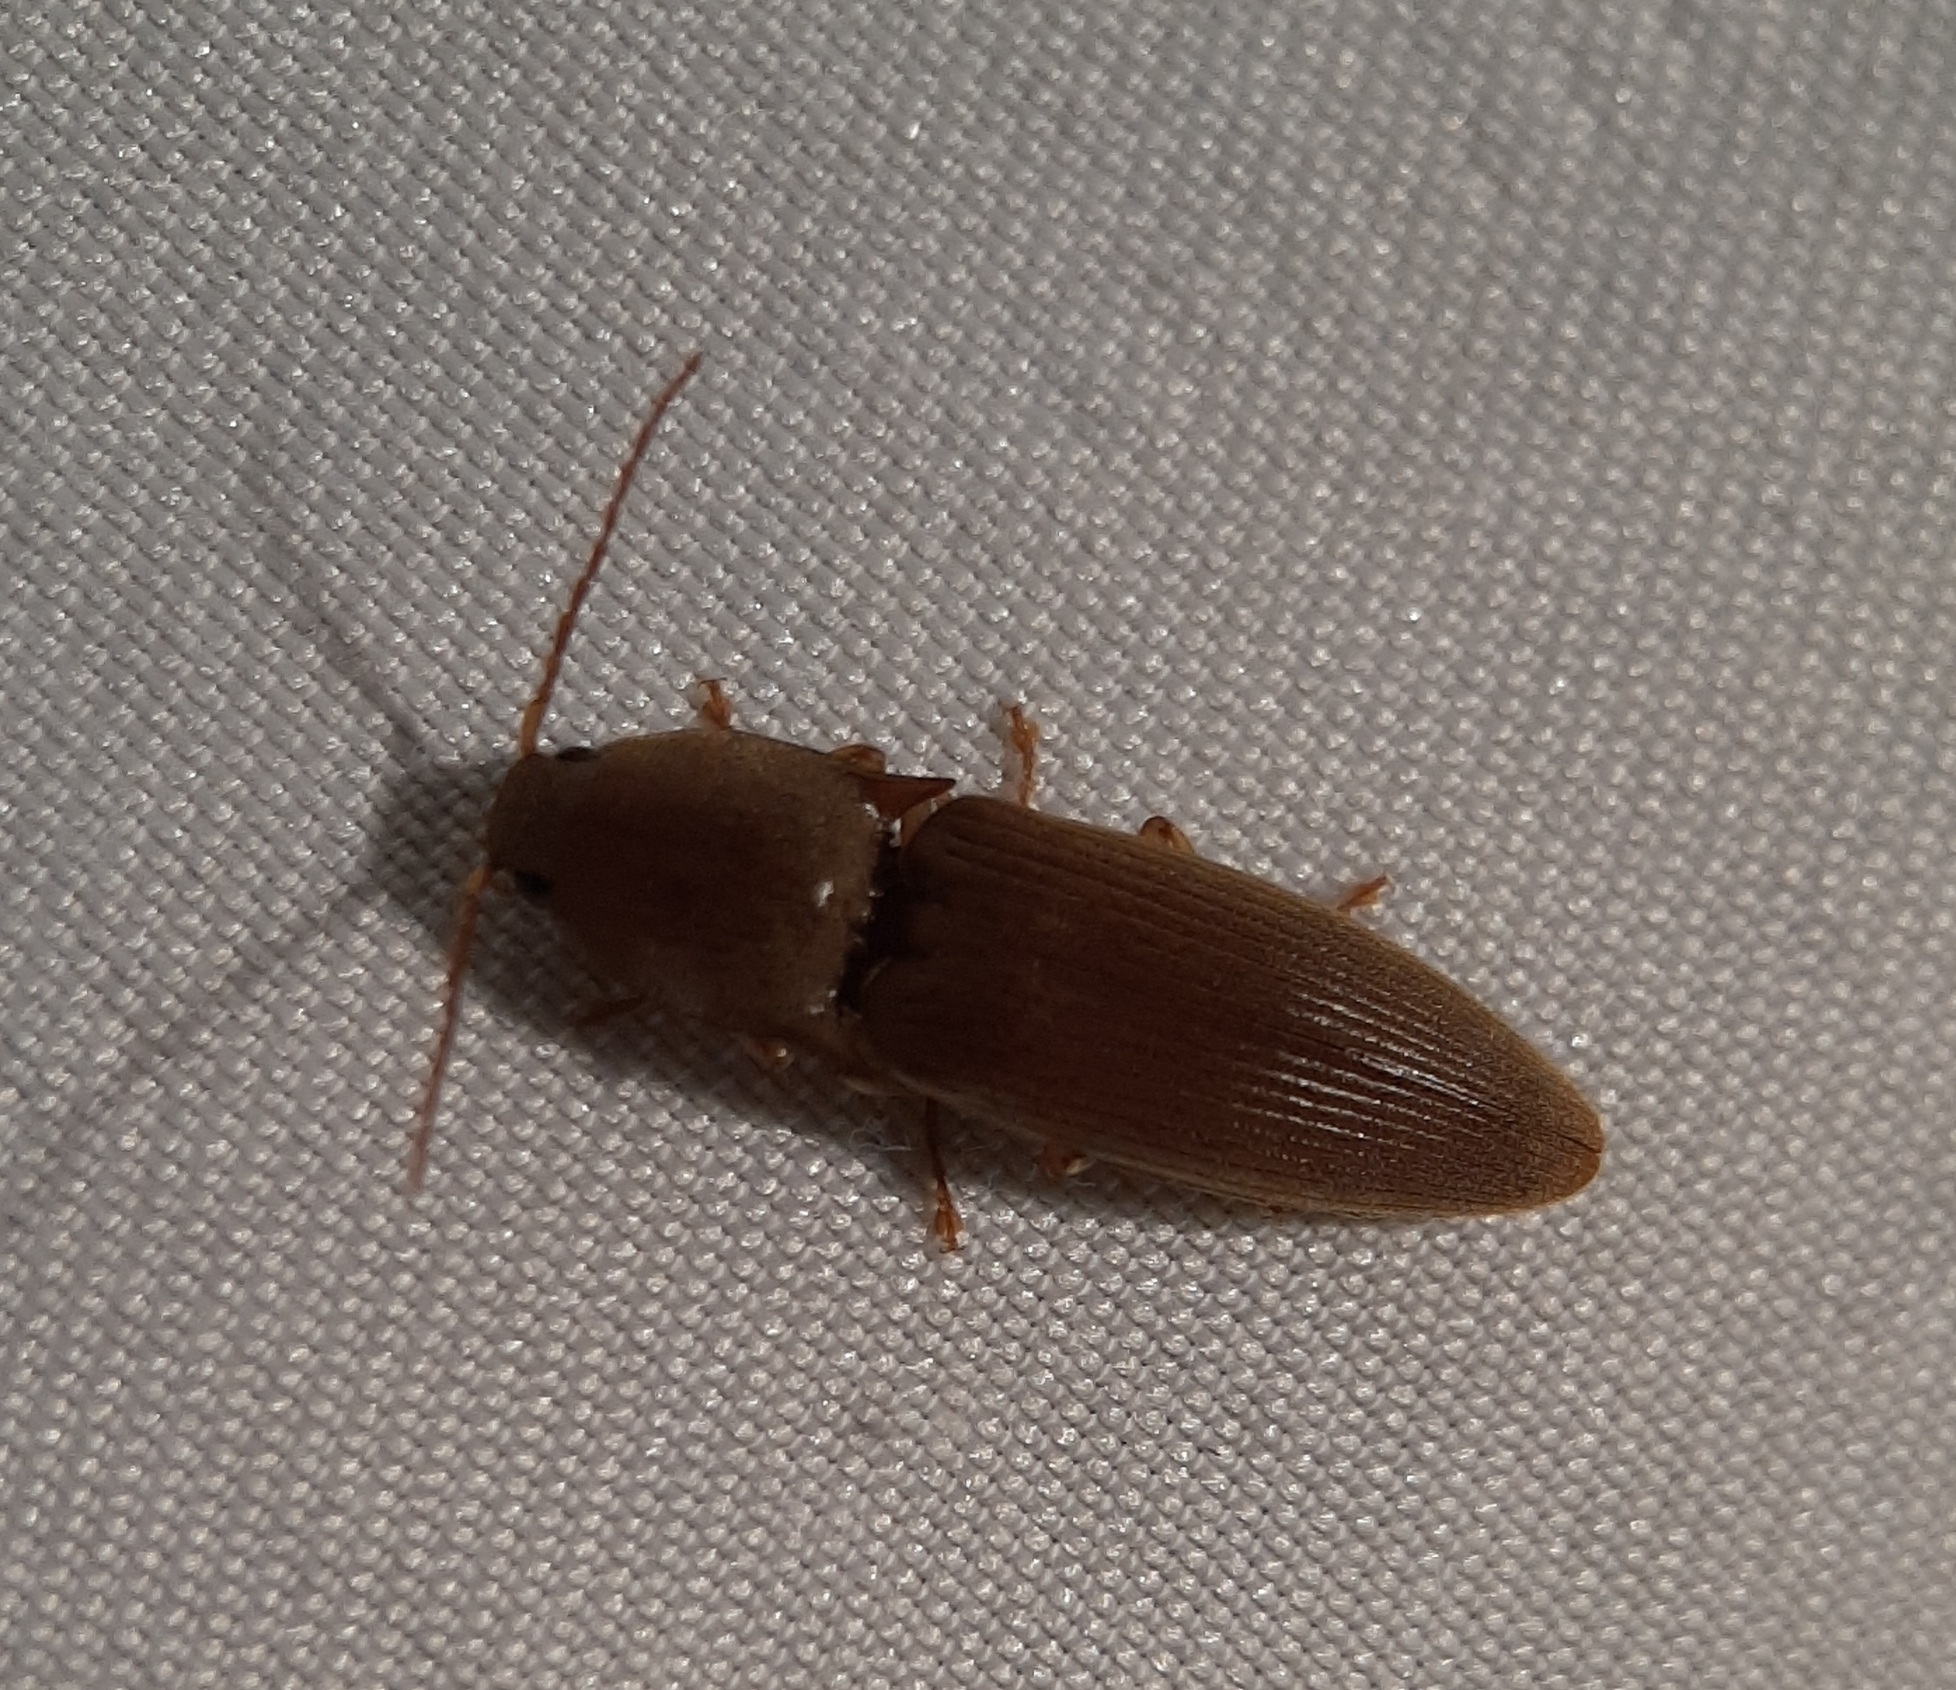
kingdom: Animalia
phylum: Arthropoda
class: Insecta
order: Coleoptera
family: Elateridae
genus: Monocrepidius
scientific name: Monocrepidius lividus
